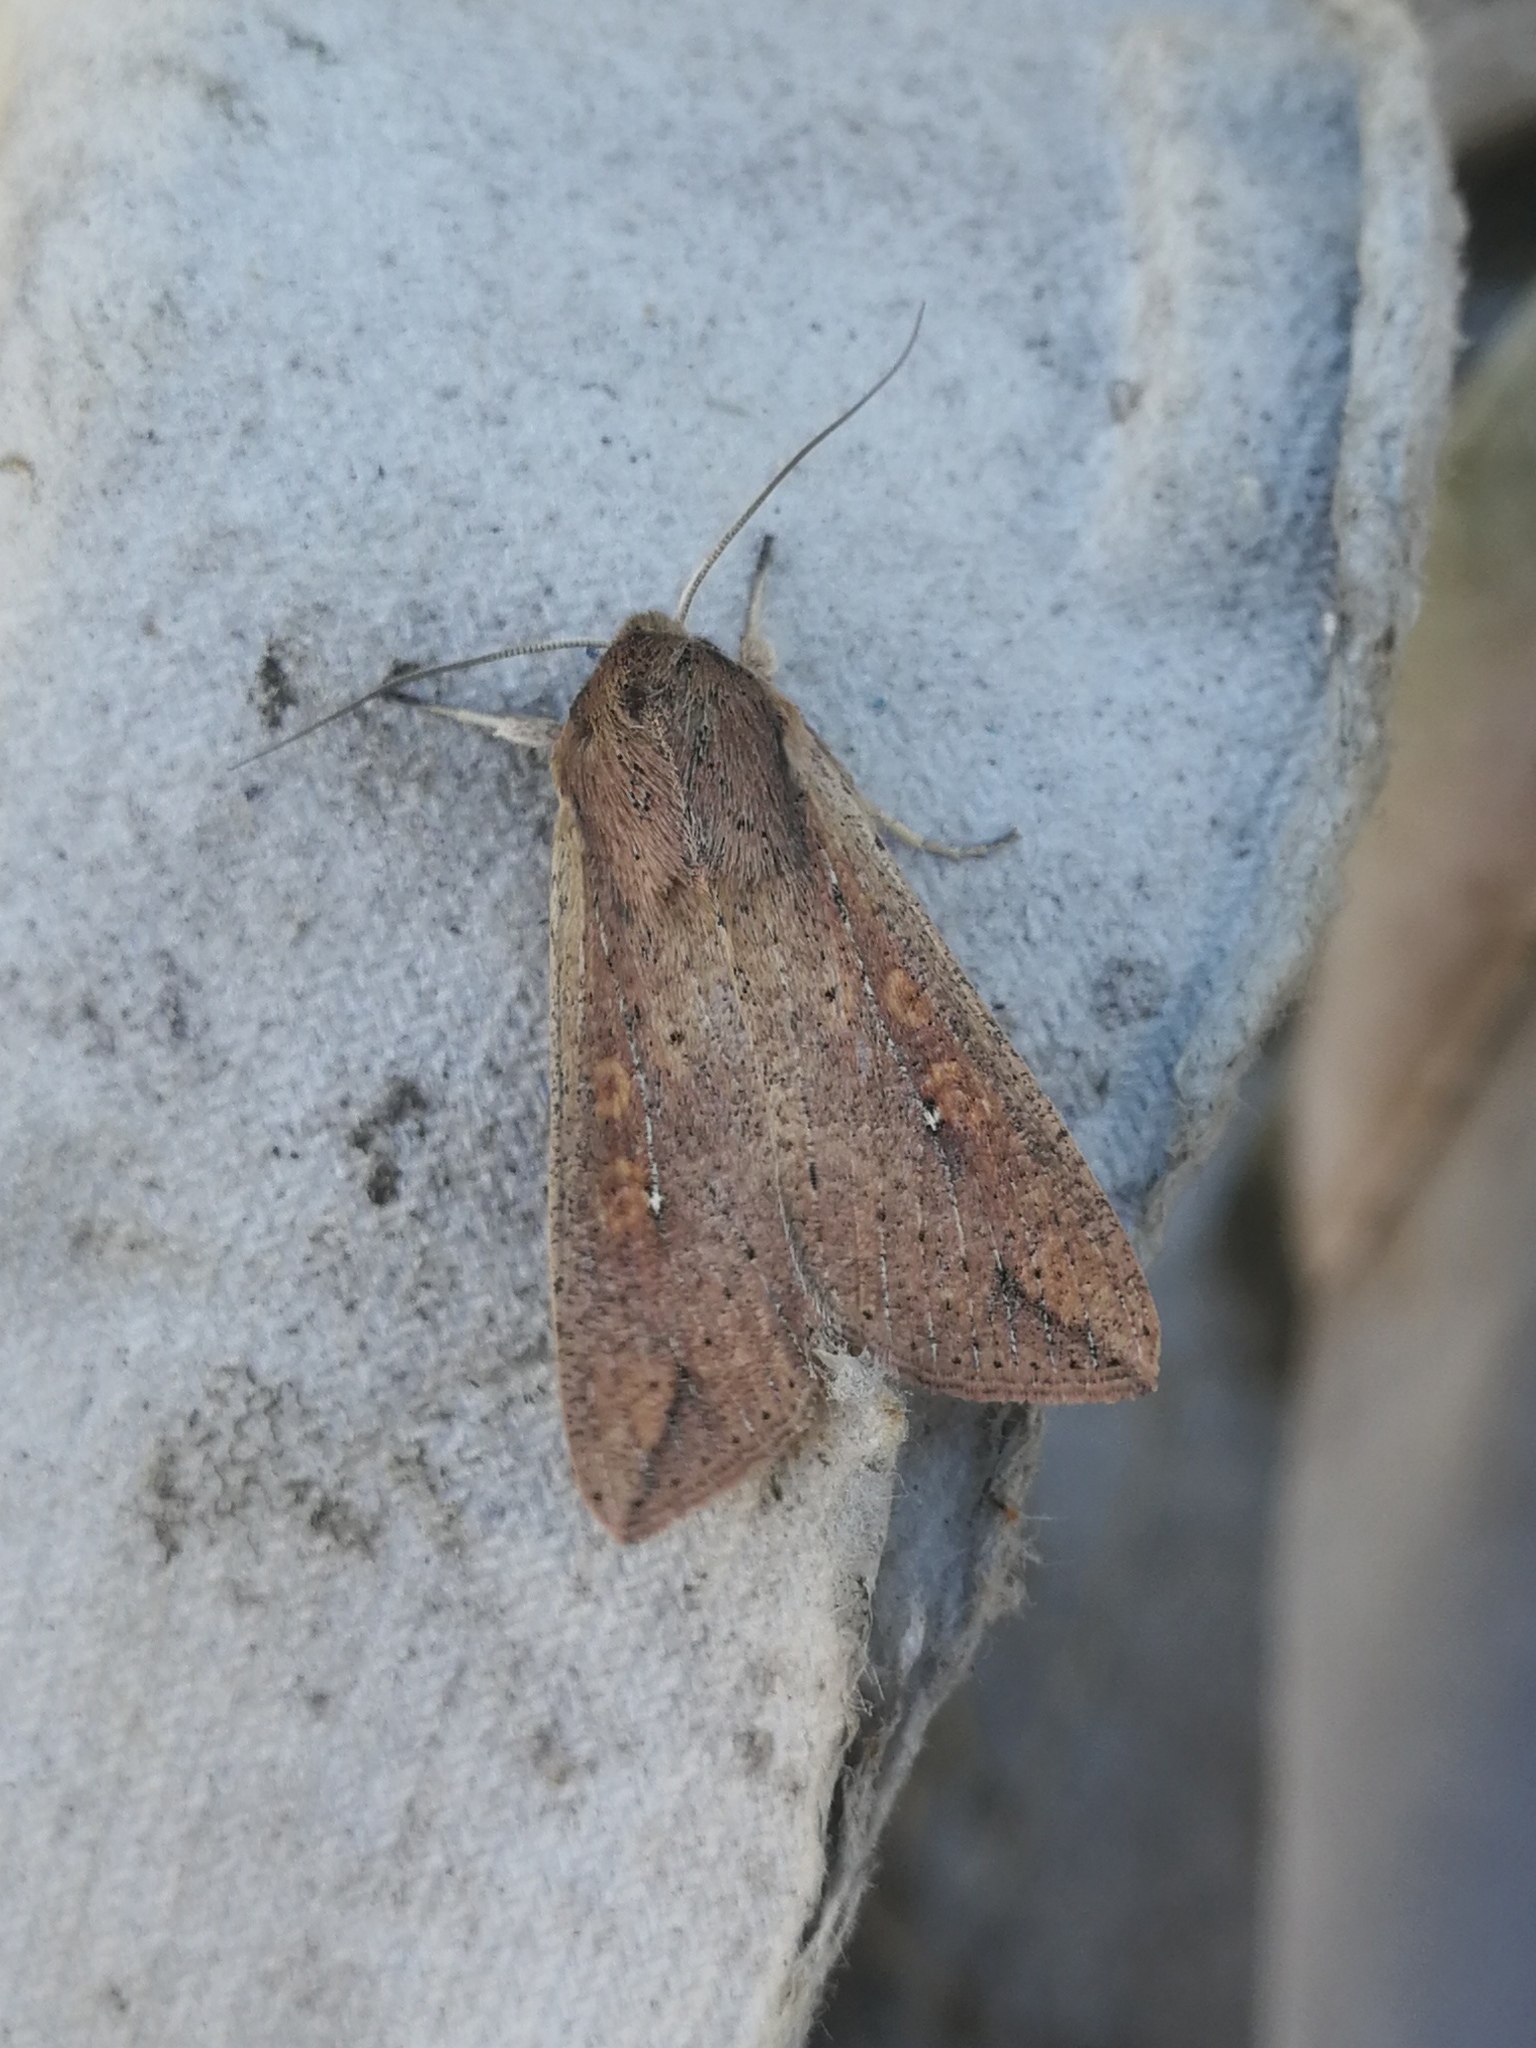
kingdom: Animalia
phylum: Arthropoda
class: Insecta
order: Lepidoptera
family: Noctuidae
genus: Mythimna
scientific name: Mythimna unipuncta
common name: White-speck
